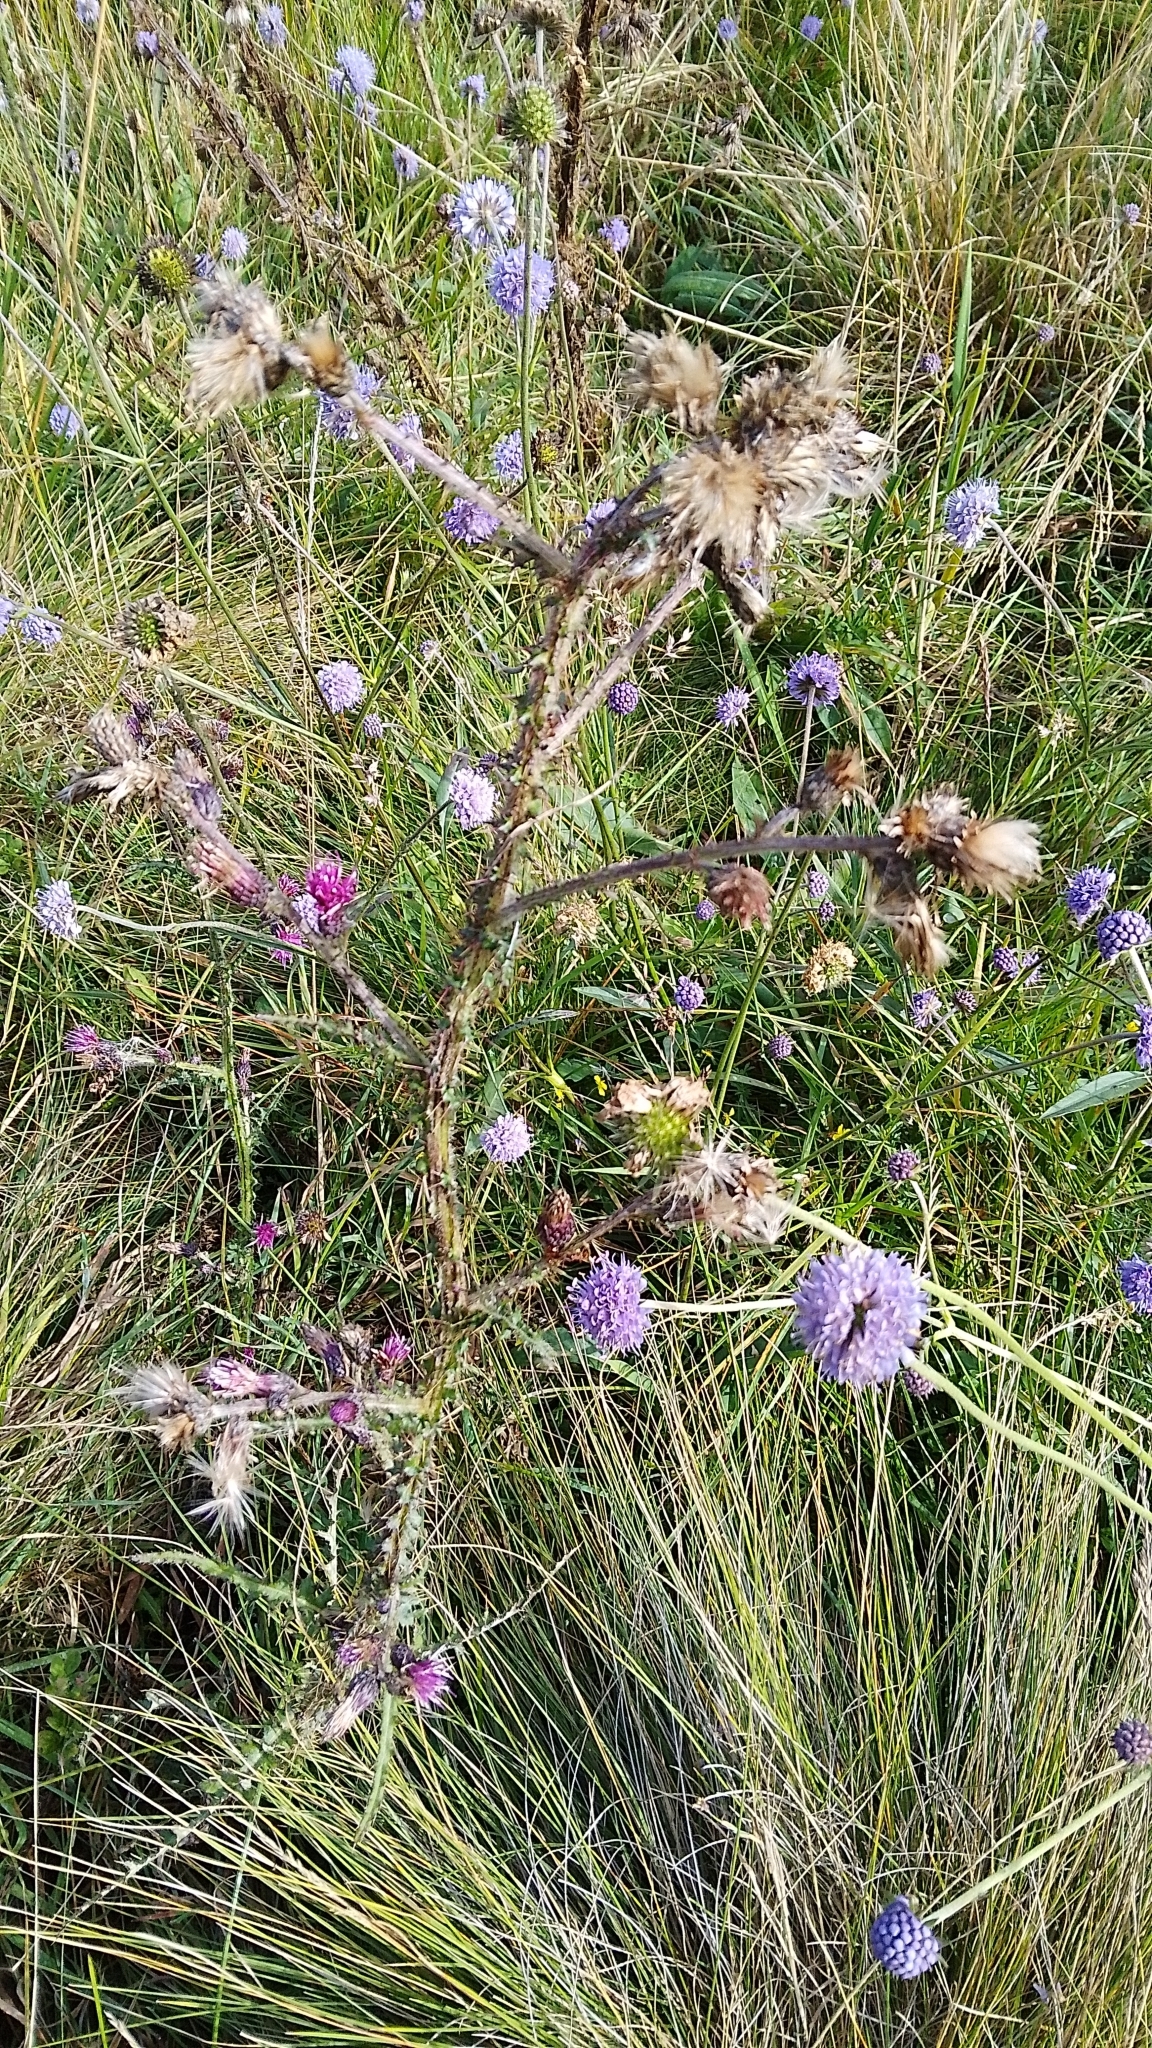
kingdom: Plantae
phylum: Tracheophyta
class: Magnoliopsida
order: Asterales
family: Asteraceae
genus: Cirsium
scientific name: Cirsium palustre
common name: Marsh thistle
